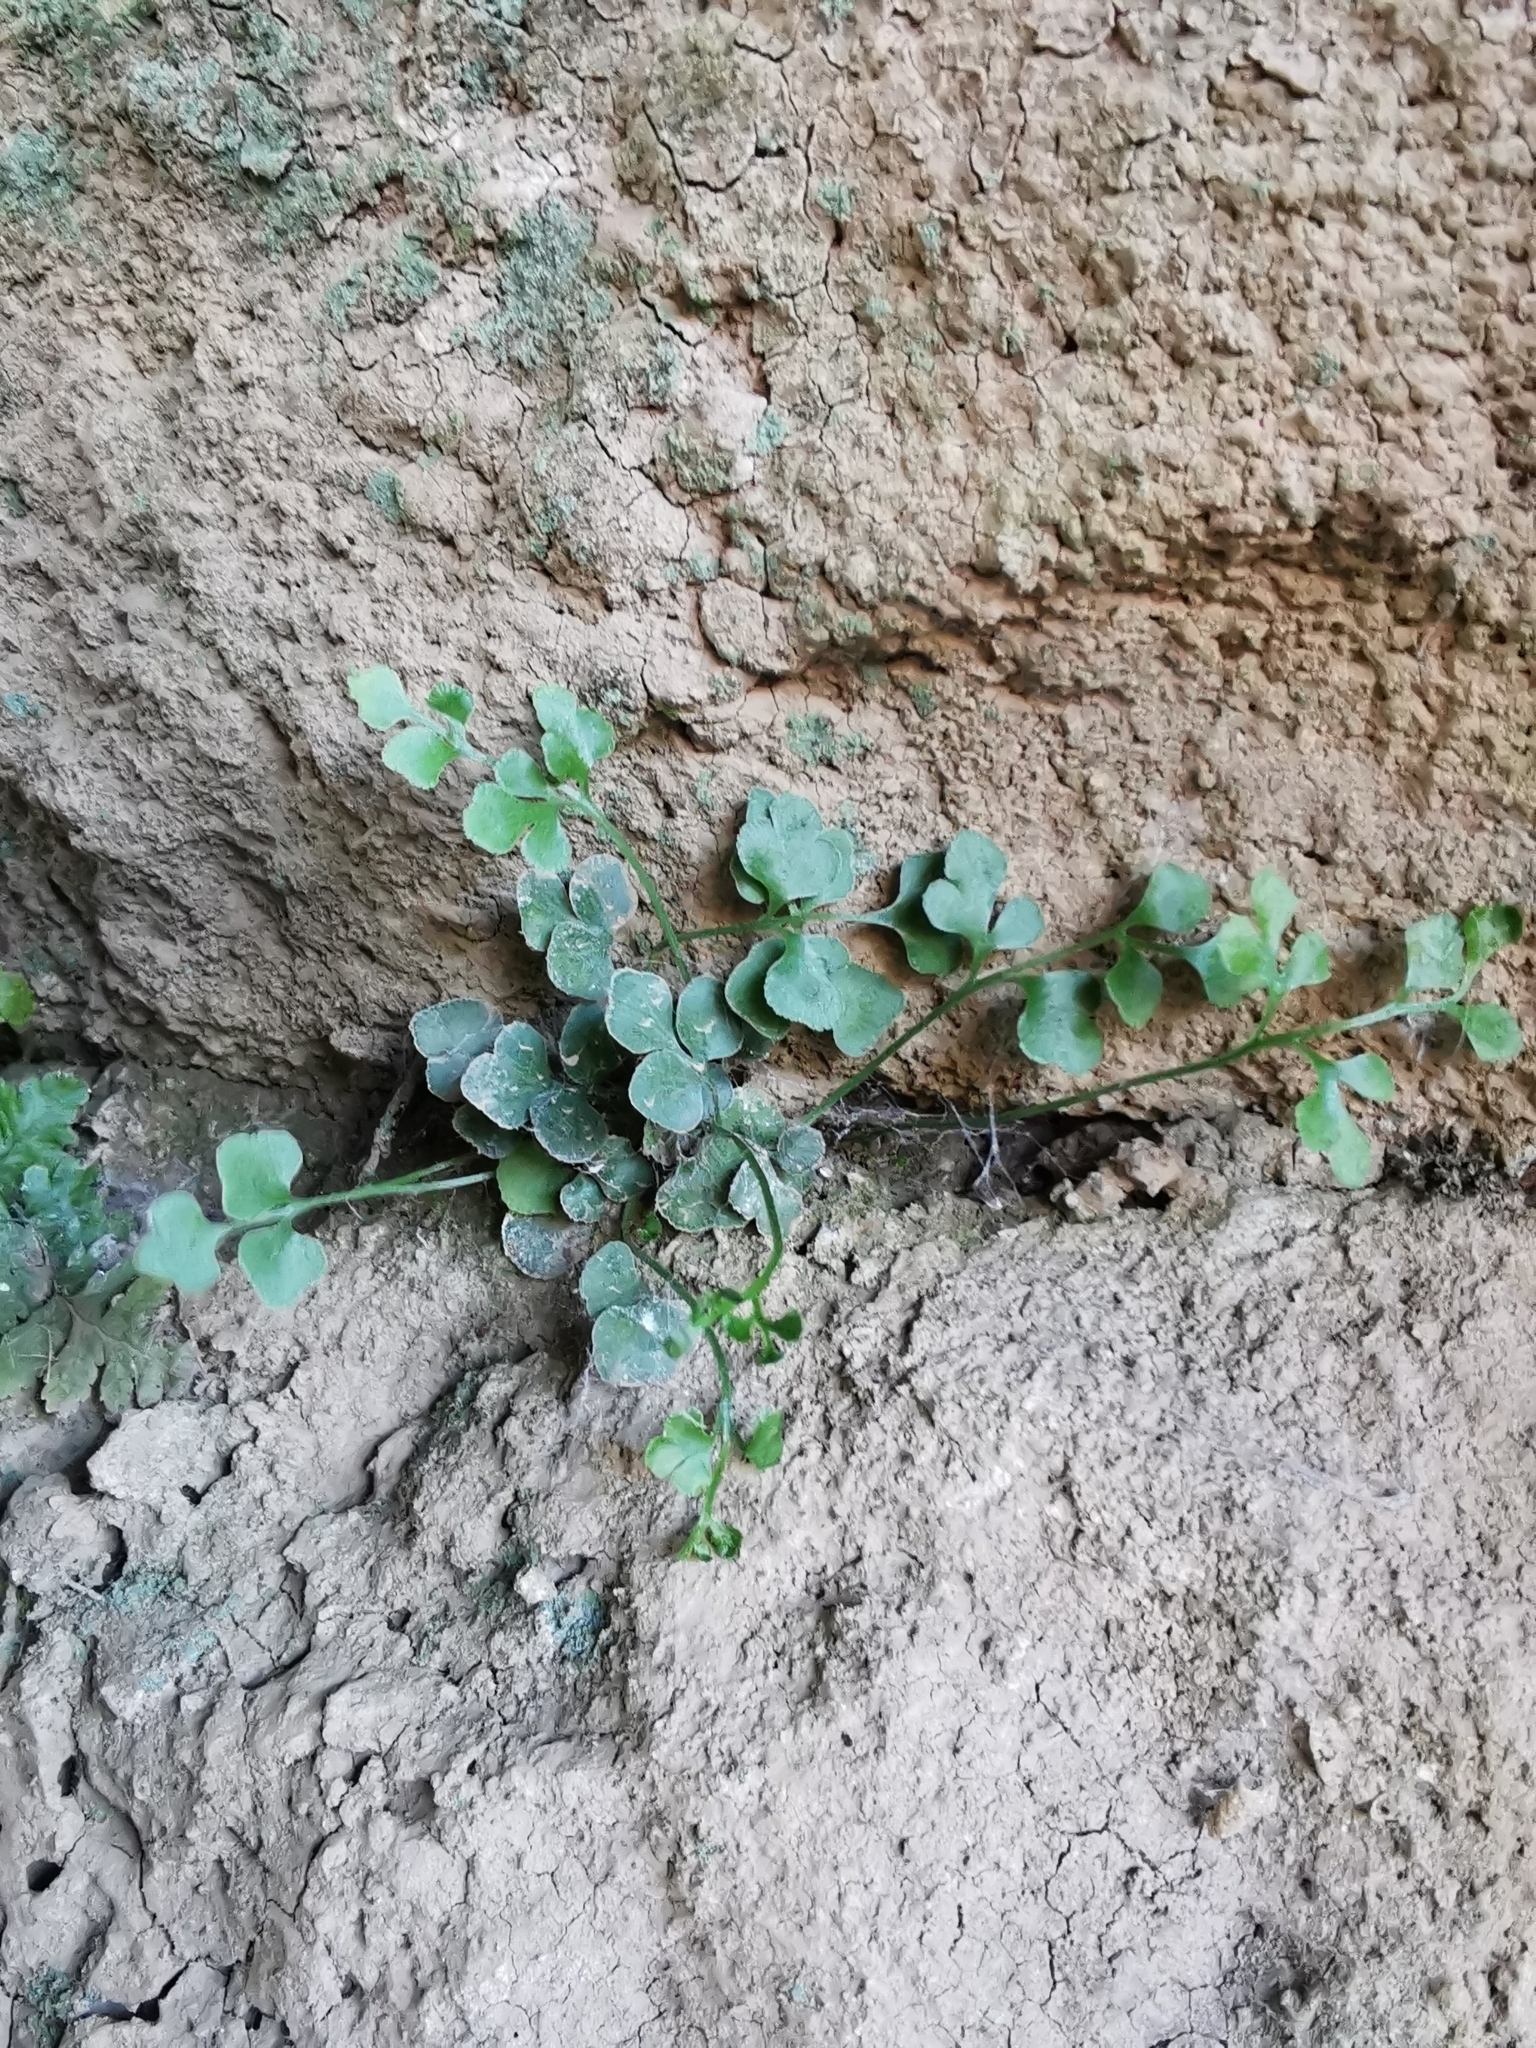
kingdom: Plantae
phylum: Tracheophyta
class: Polypodiopsida
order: Polypodiales
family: Aspleniaceae
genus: Asplenium
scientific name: Asplenium ruta-muraria
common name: Wall-rue
